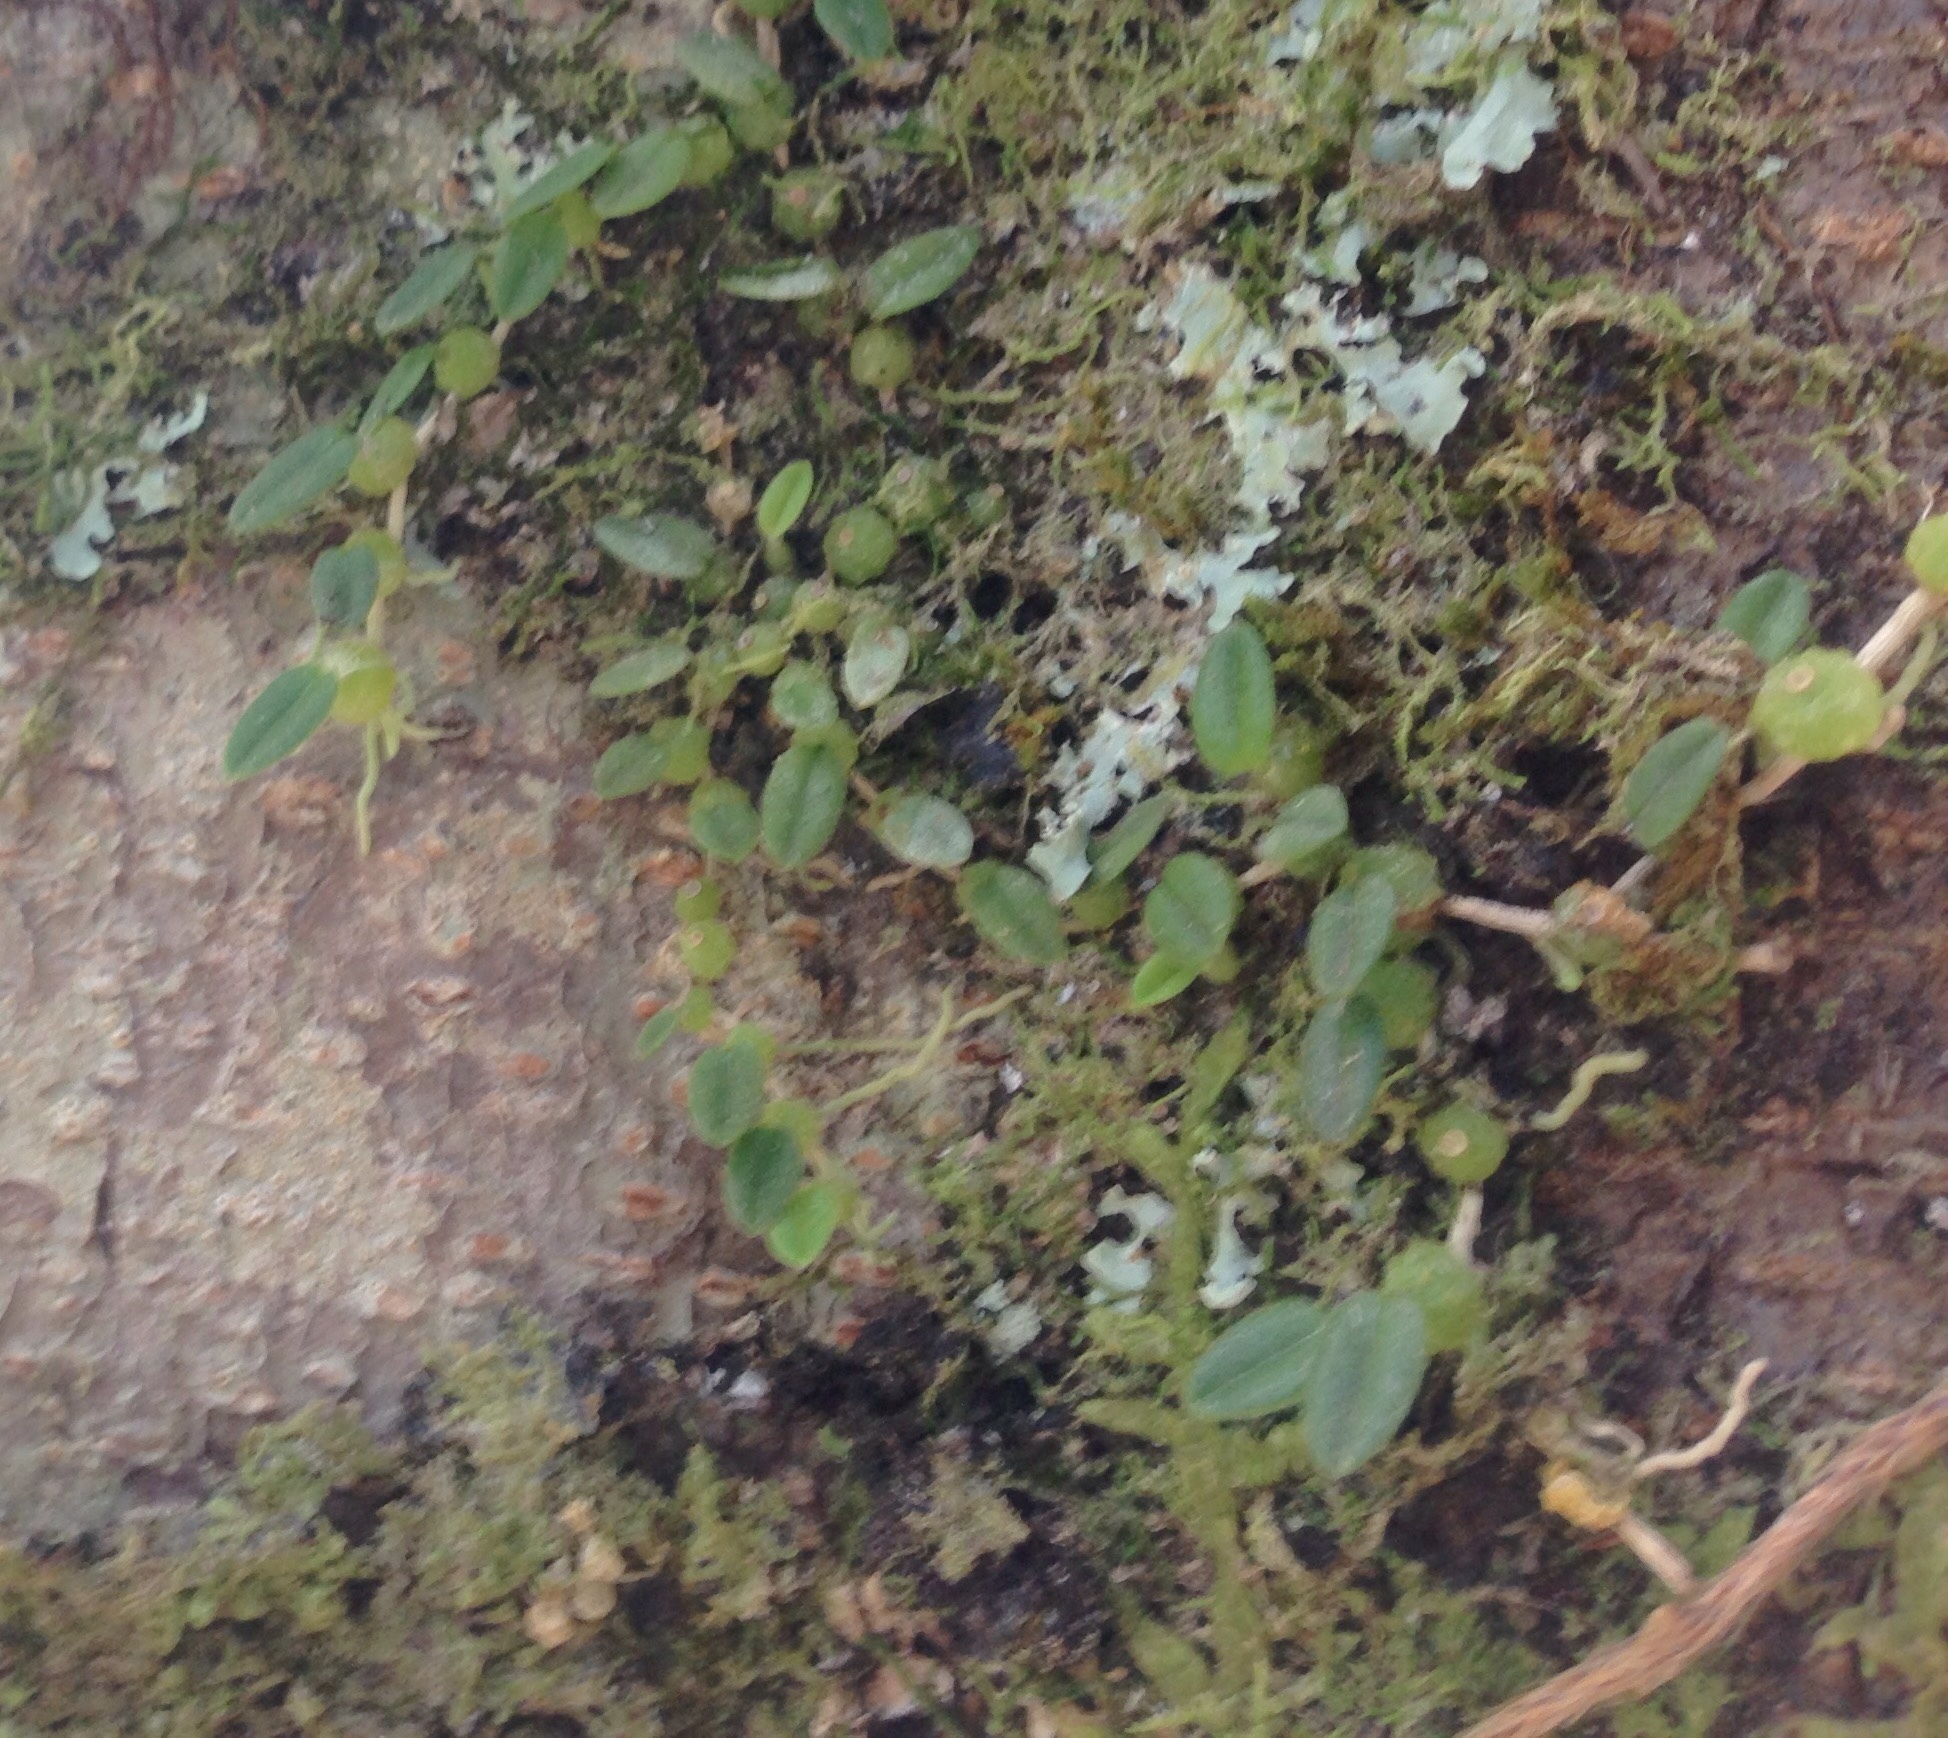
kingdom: Plantae
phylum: Tracheophyta
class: Liliopsida
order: Asparagales
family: Orchidaceae
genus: Bulbophyllum
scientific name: Bulbophyllum pygmaeum
